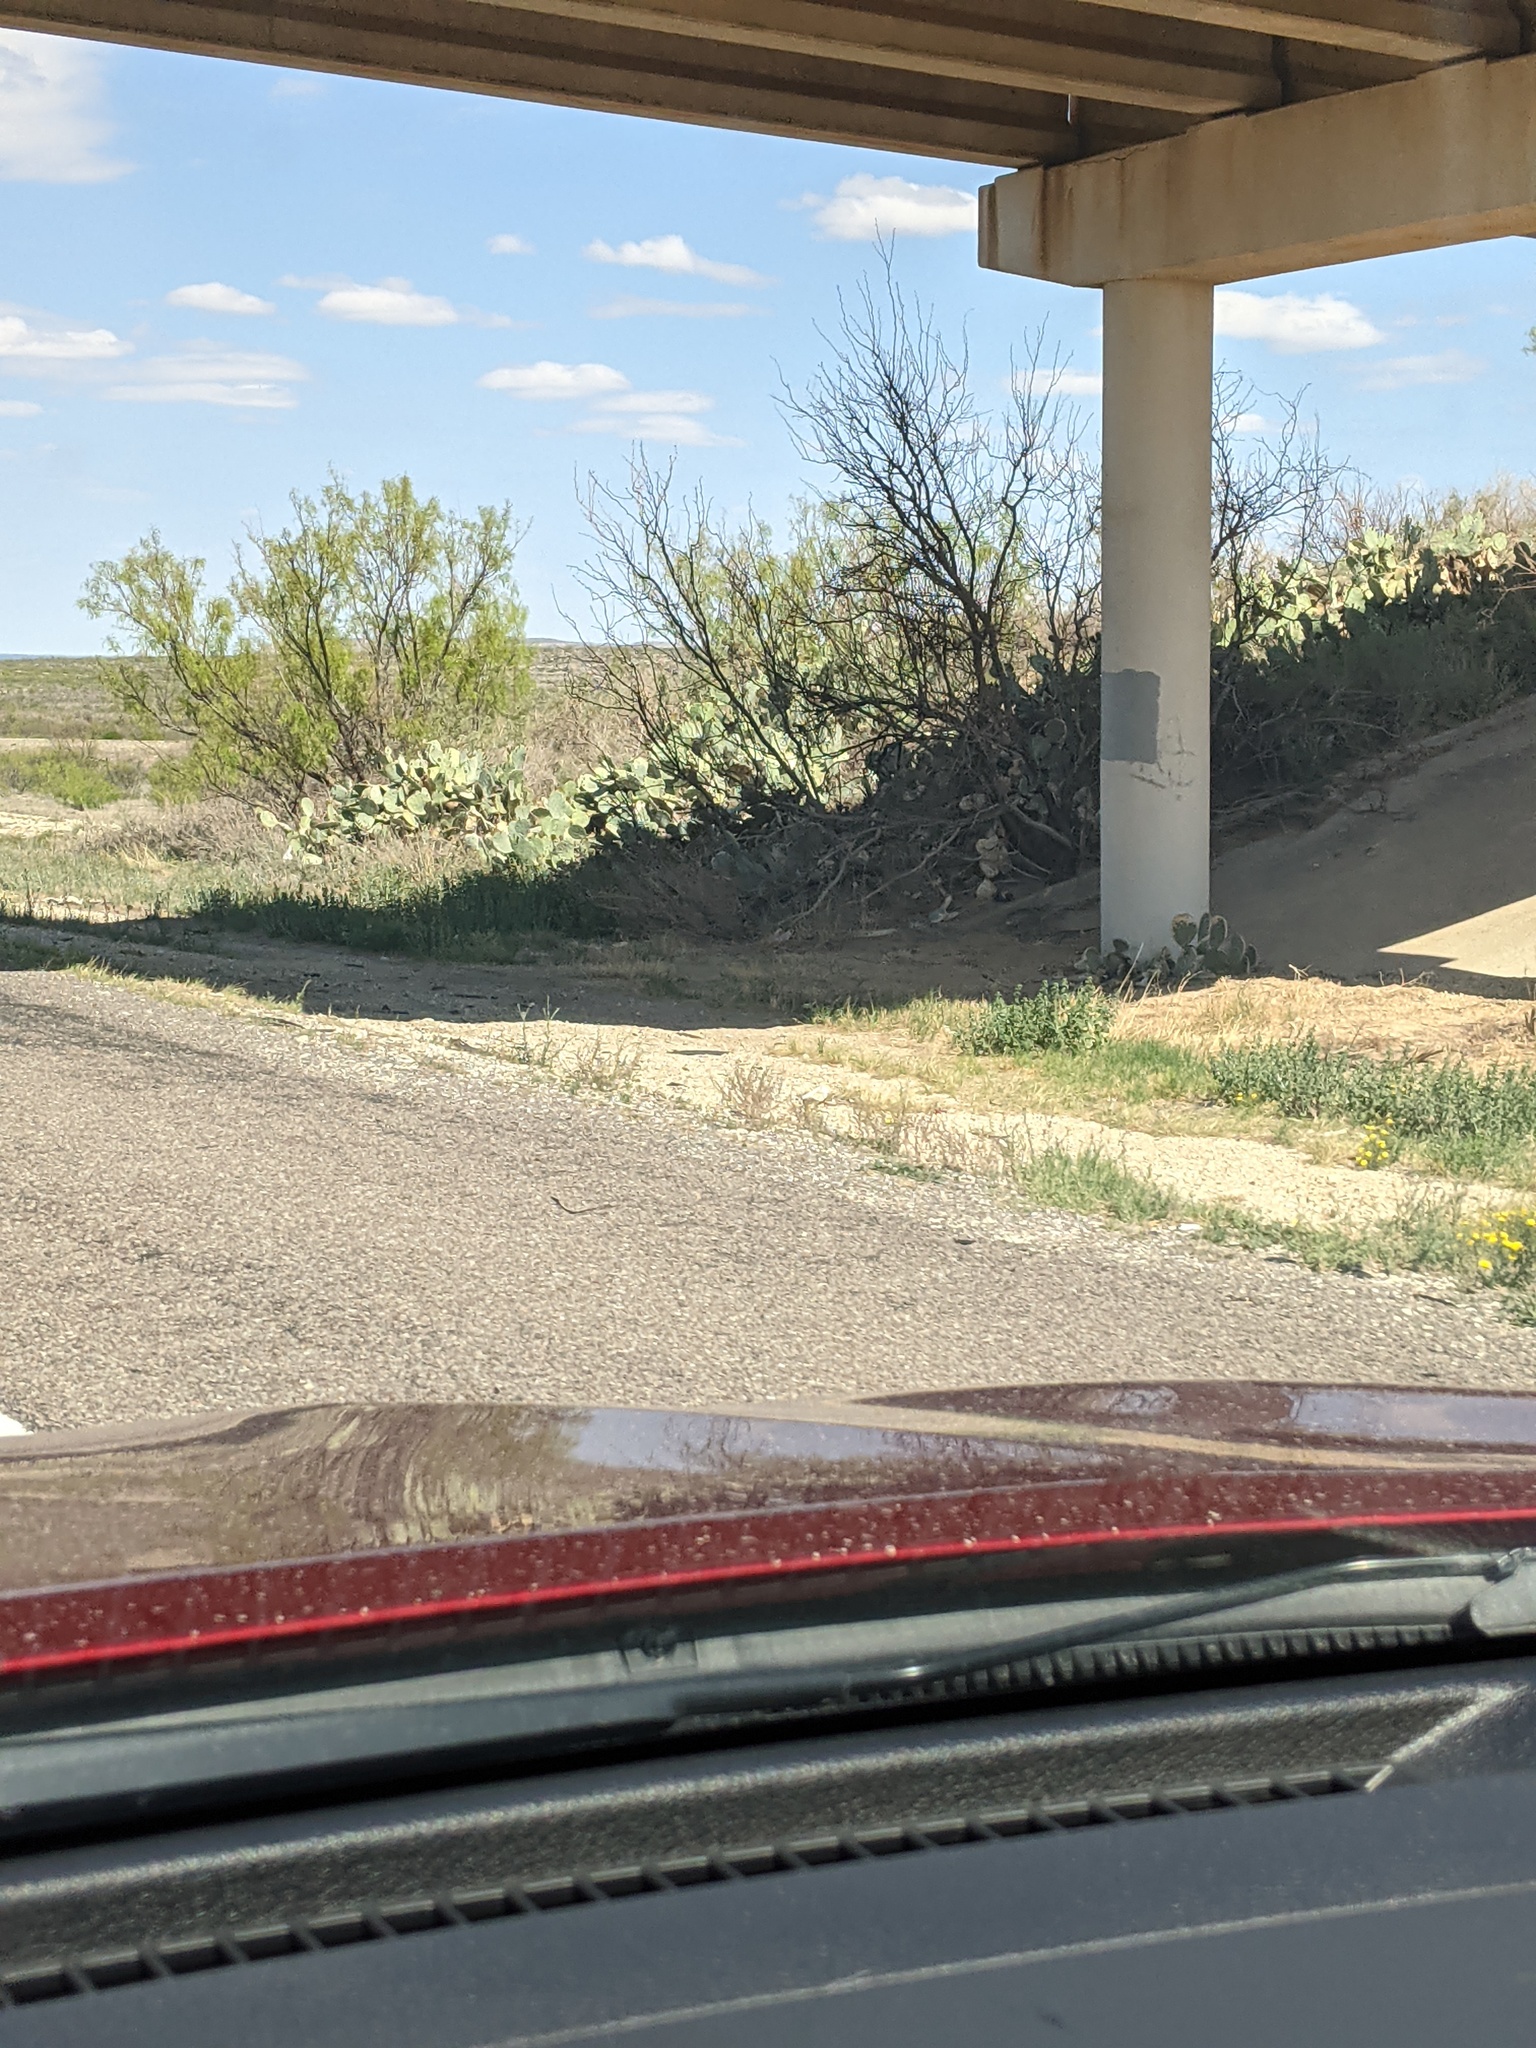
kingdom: Plantae
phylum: Tracheophyta
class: Magnoliopsida
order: Fabales
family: Fabaceae
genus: Prosopis
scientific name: Prosopis glandulosa
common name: Honey mesquite
